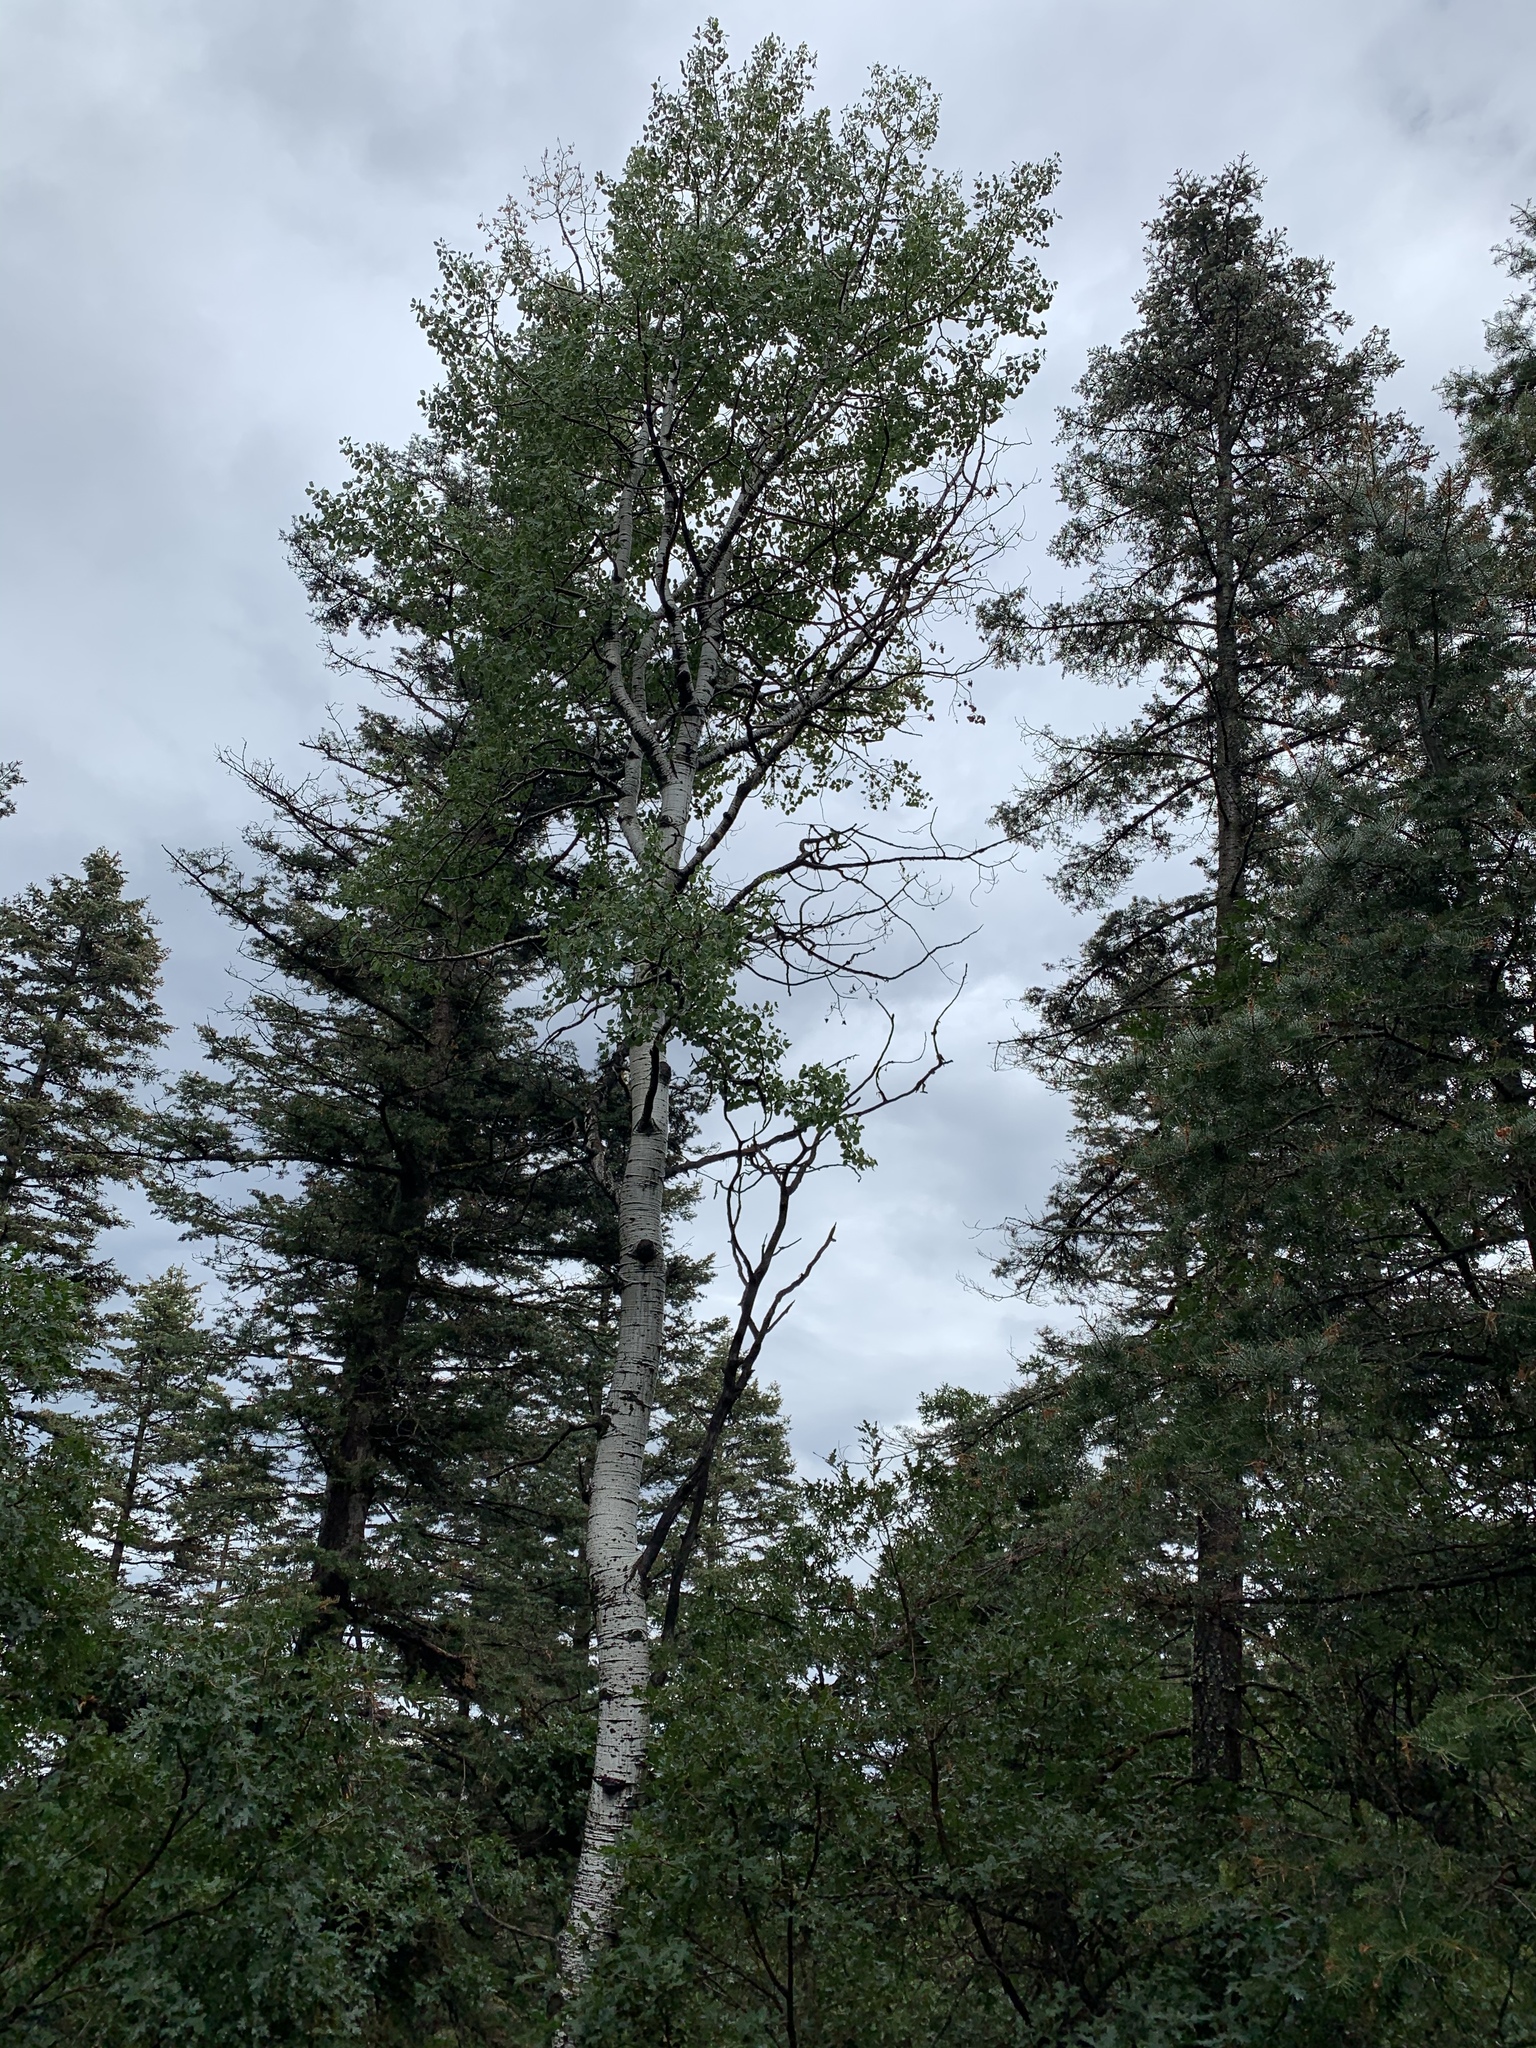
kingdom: Plantae
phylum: Tracheophyta
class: Magnoliopsida
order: Malpighiales
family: Salicaceae
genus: Populus
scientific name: Populus tremuloides
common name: Quaking aspen
